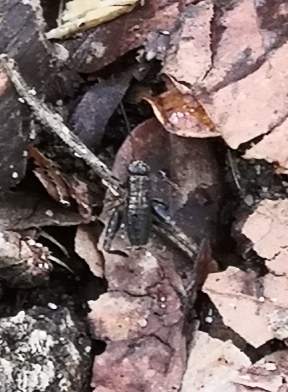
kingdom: Animalia
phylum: Arthropoda
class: Insecta
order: Orthoptera
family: Trigonidiidae
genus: Nemobius
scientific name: Nemobius sylvestris
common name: Wood-cricket
